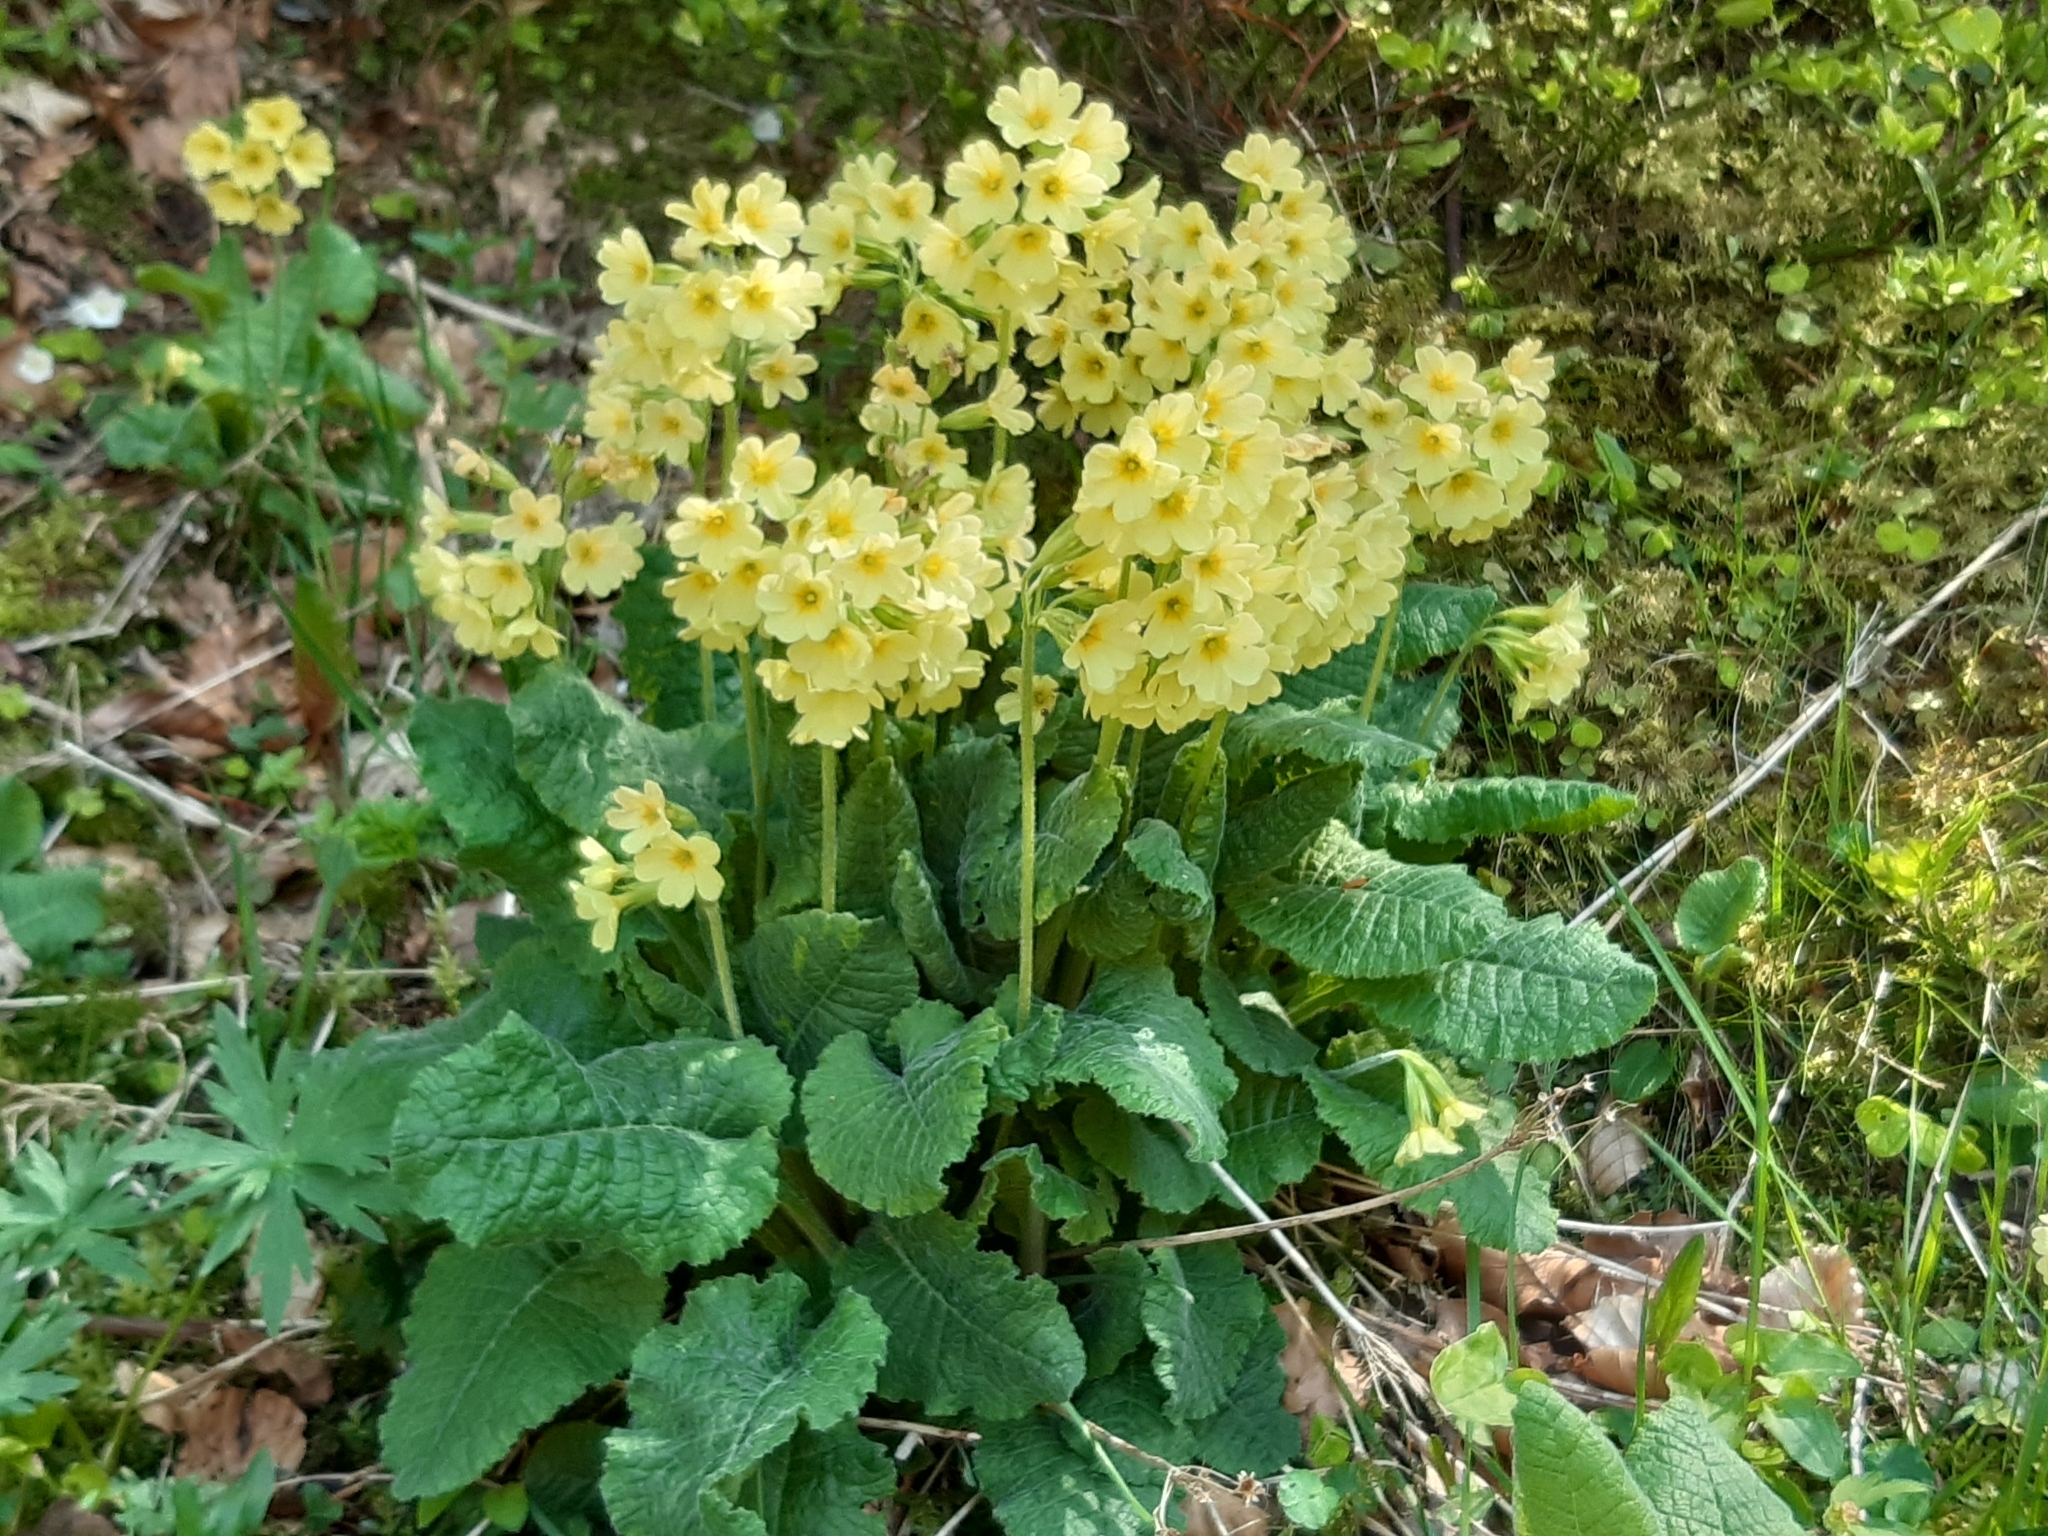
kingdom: Plantae
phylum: Tracheophyta
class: Magnoliopsida
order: Ericales
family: Primulaceae
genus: Primula
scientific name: Primula elatior
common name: Oxlip
